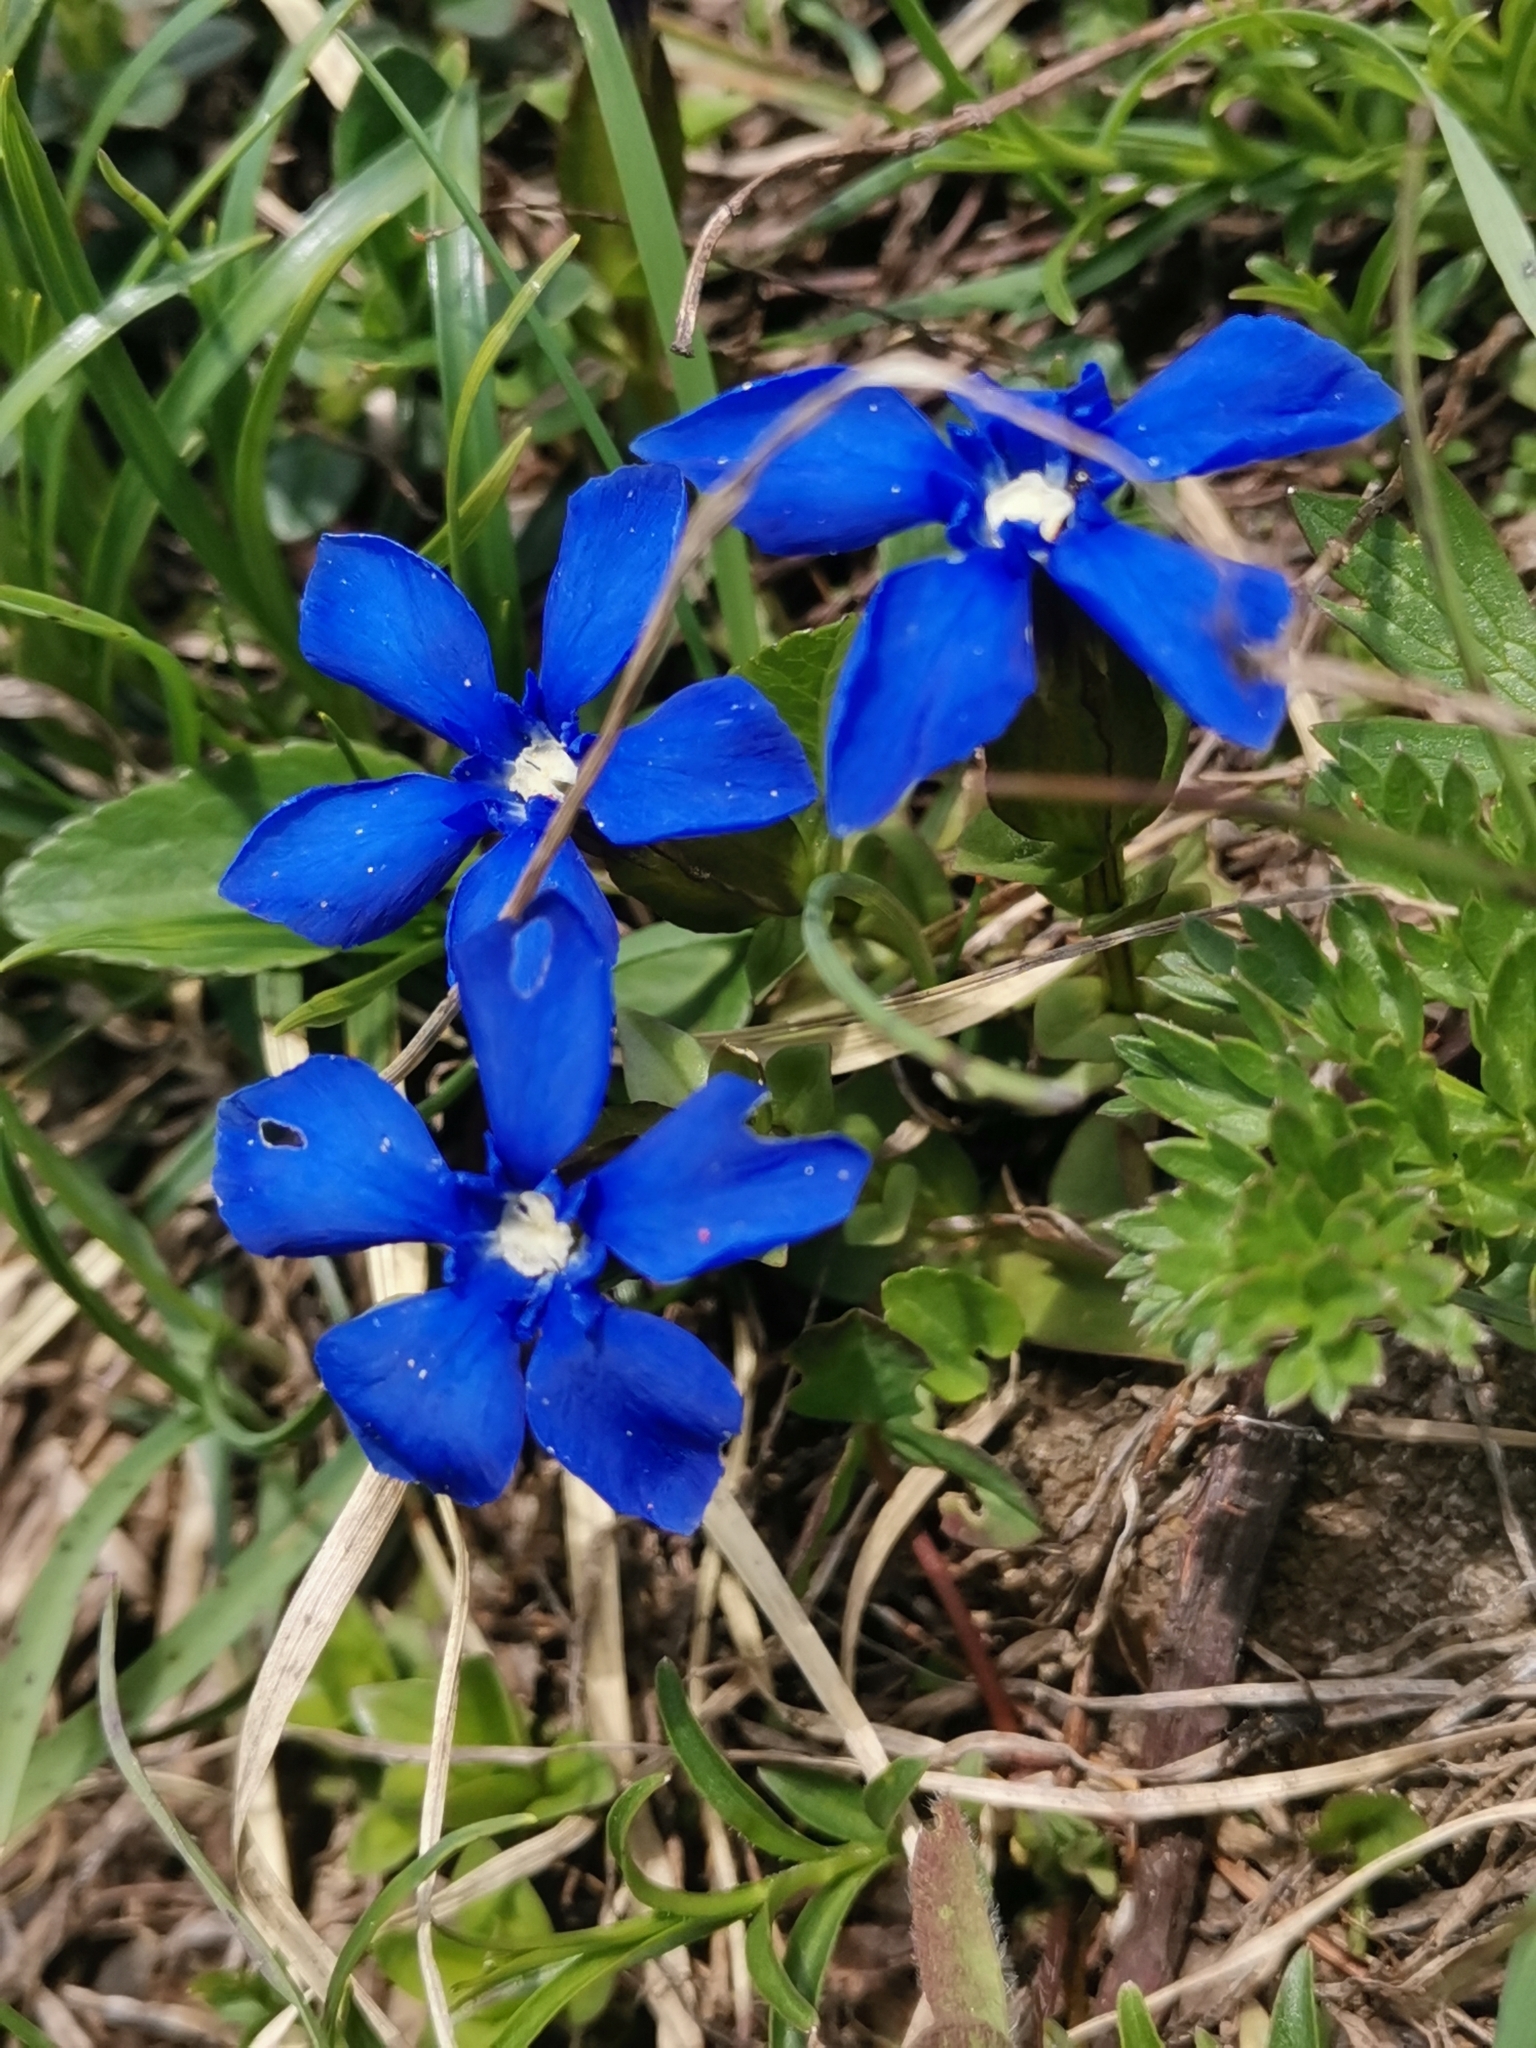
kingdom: Plantae
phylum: Tracheophyta
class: Magnoliopsida
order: Gentianales
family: Gentianaceae
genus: Gentiana
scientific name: Gentiana verna
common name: Spring gentian
